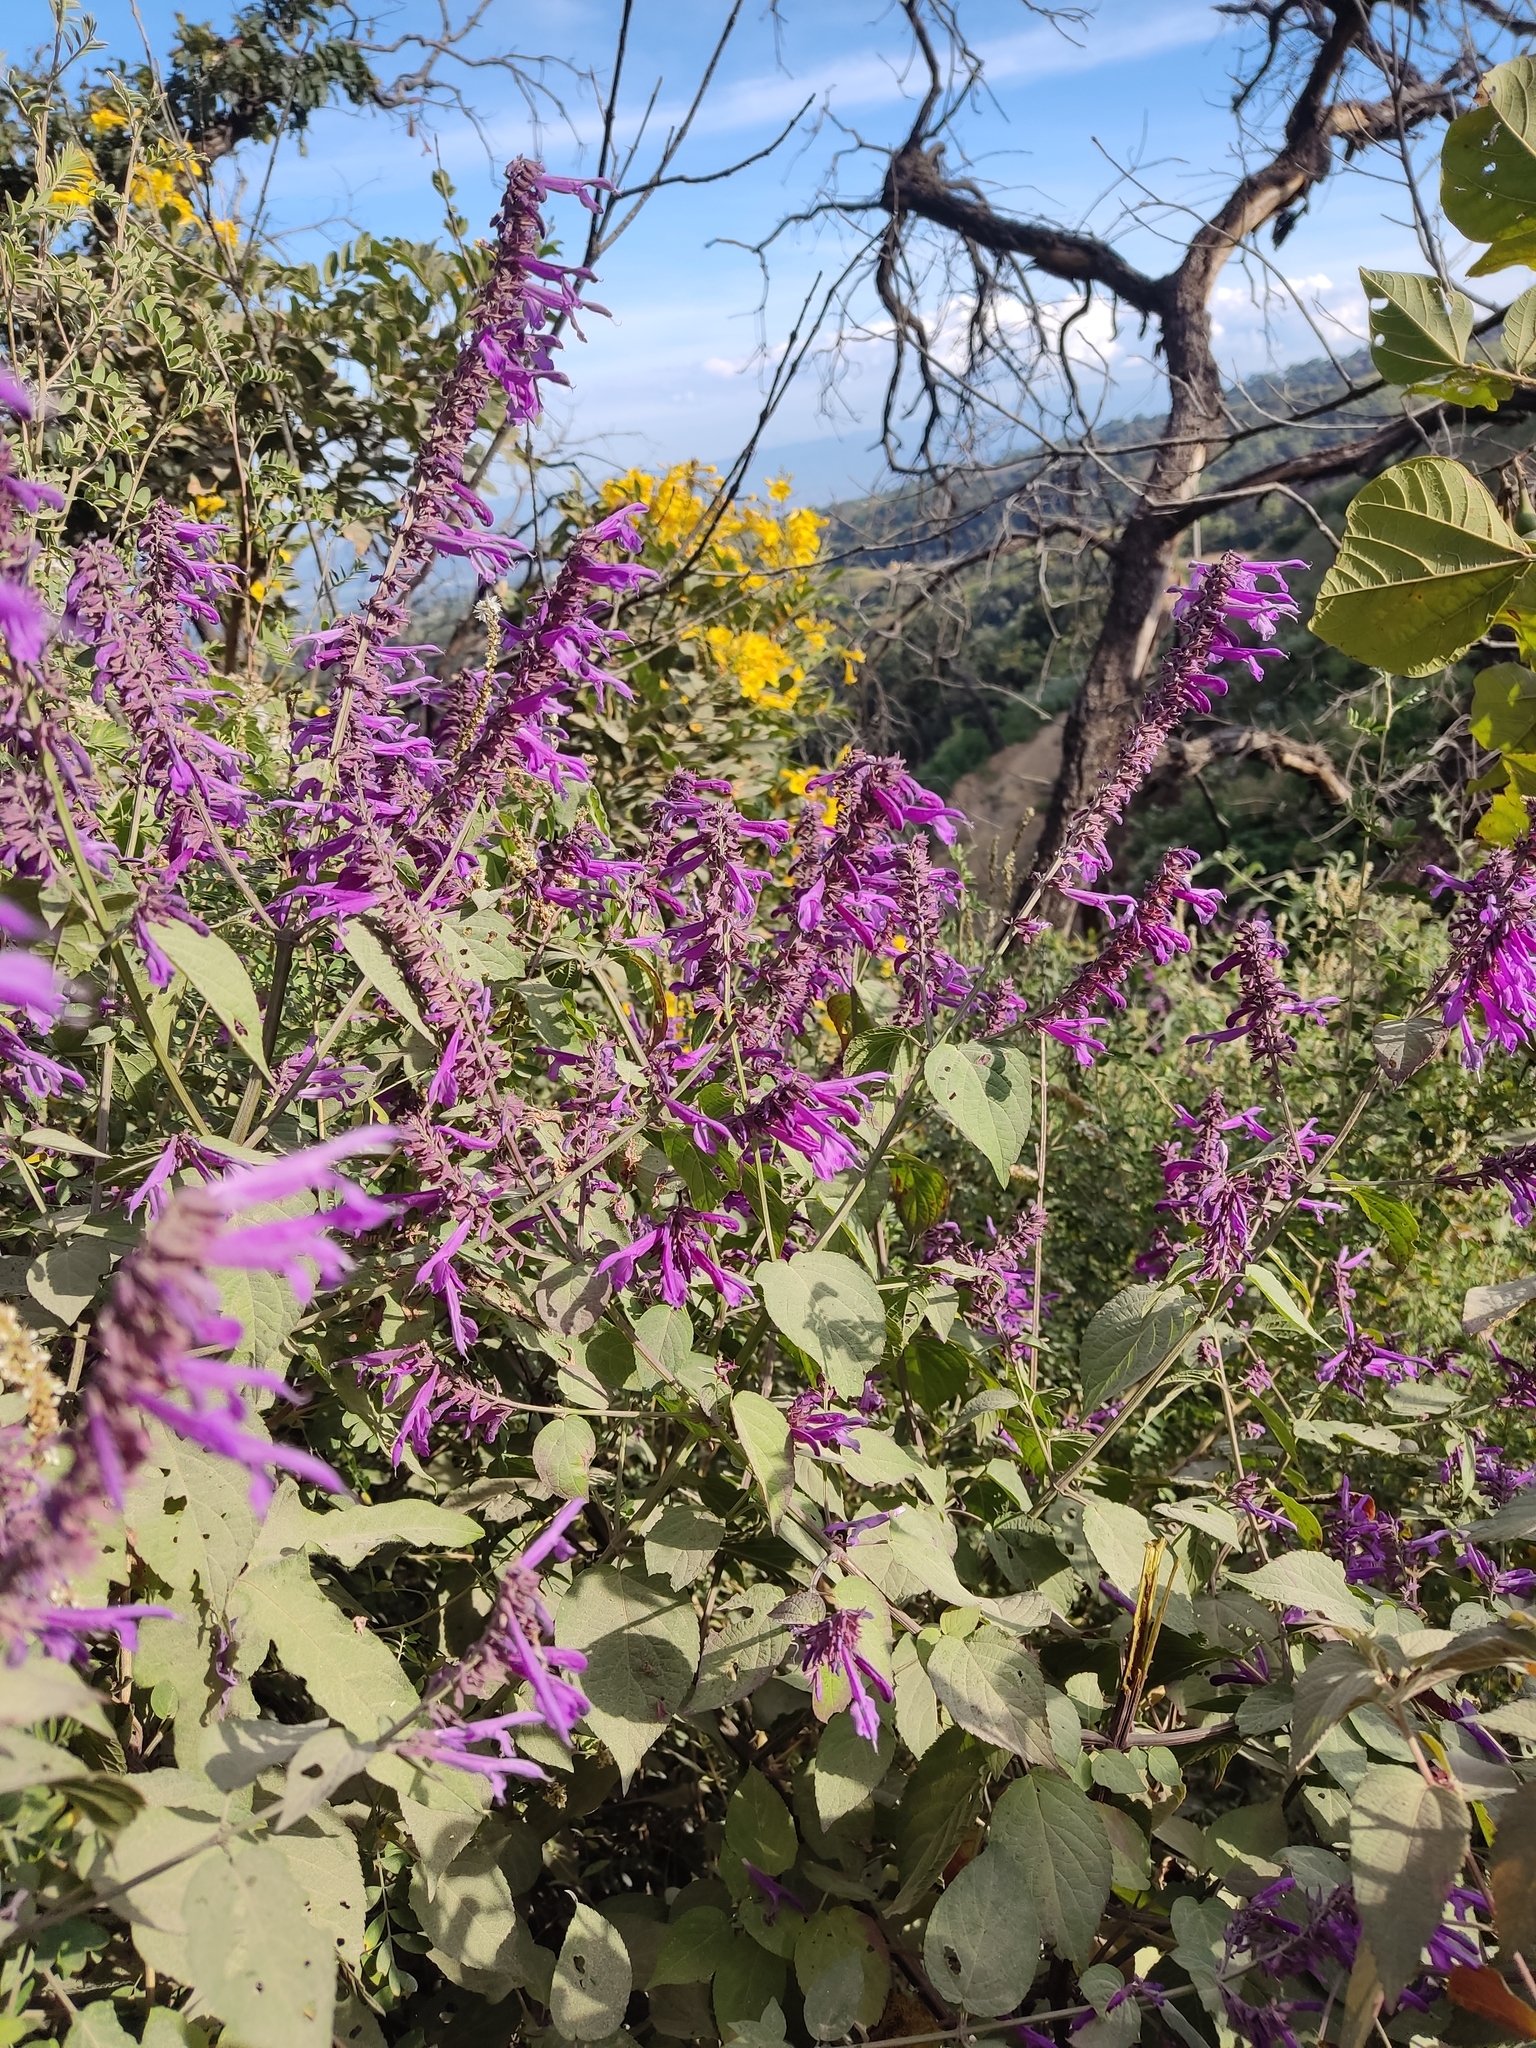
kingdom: Plantae
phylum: Tracheophyta
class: Magnoliopsida
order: Lamiales
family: Lamiaceae
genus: Salvia
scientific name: Salvia purpurea
